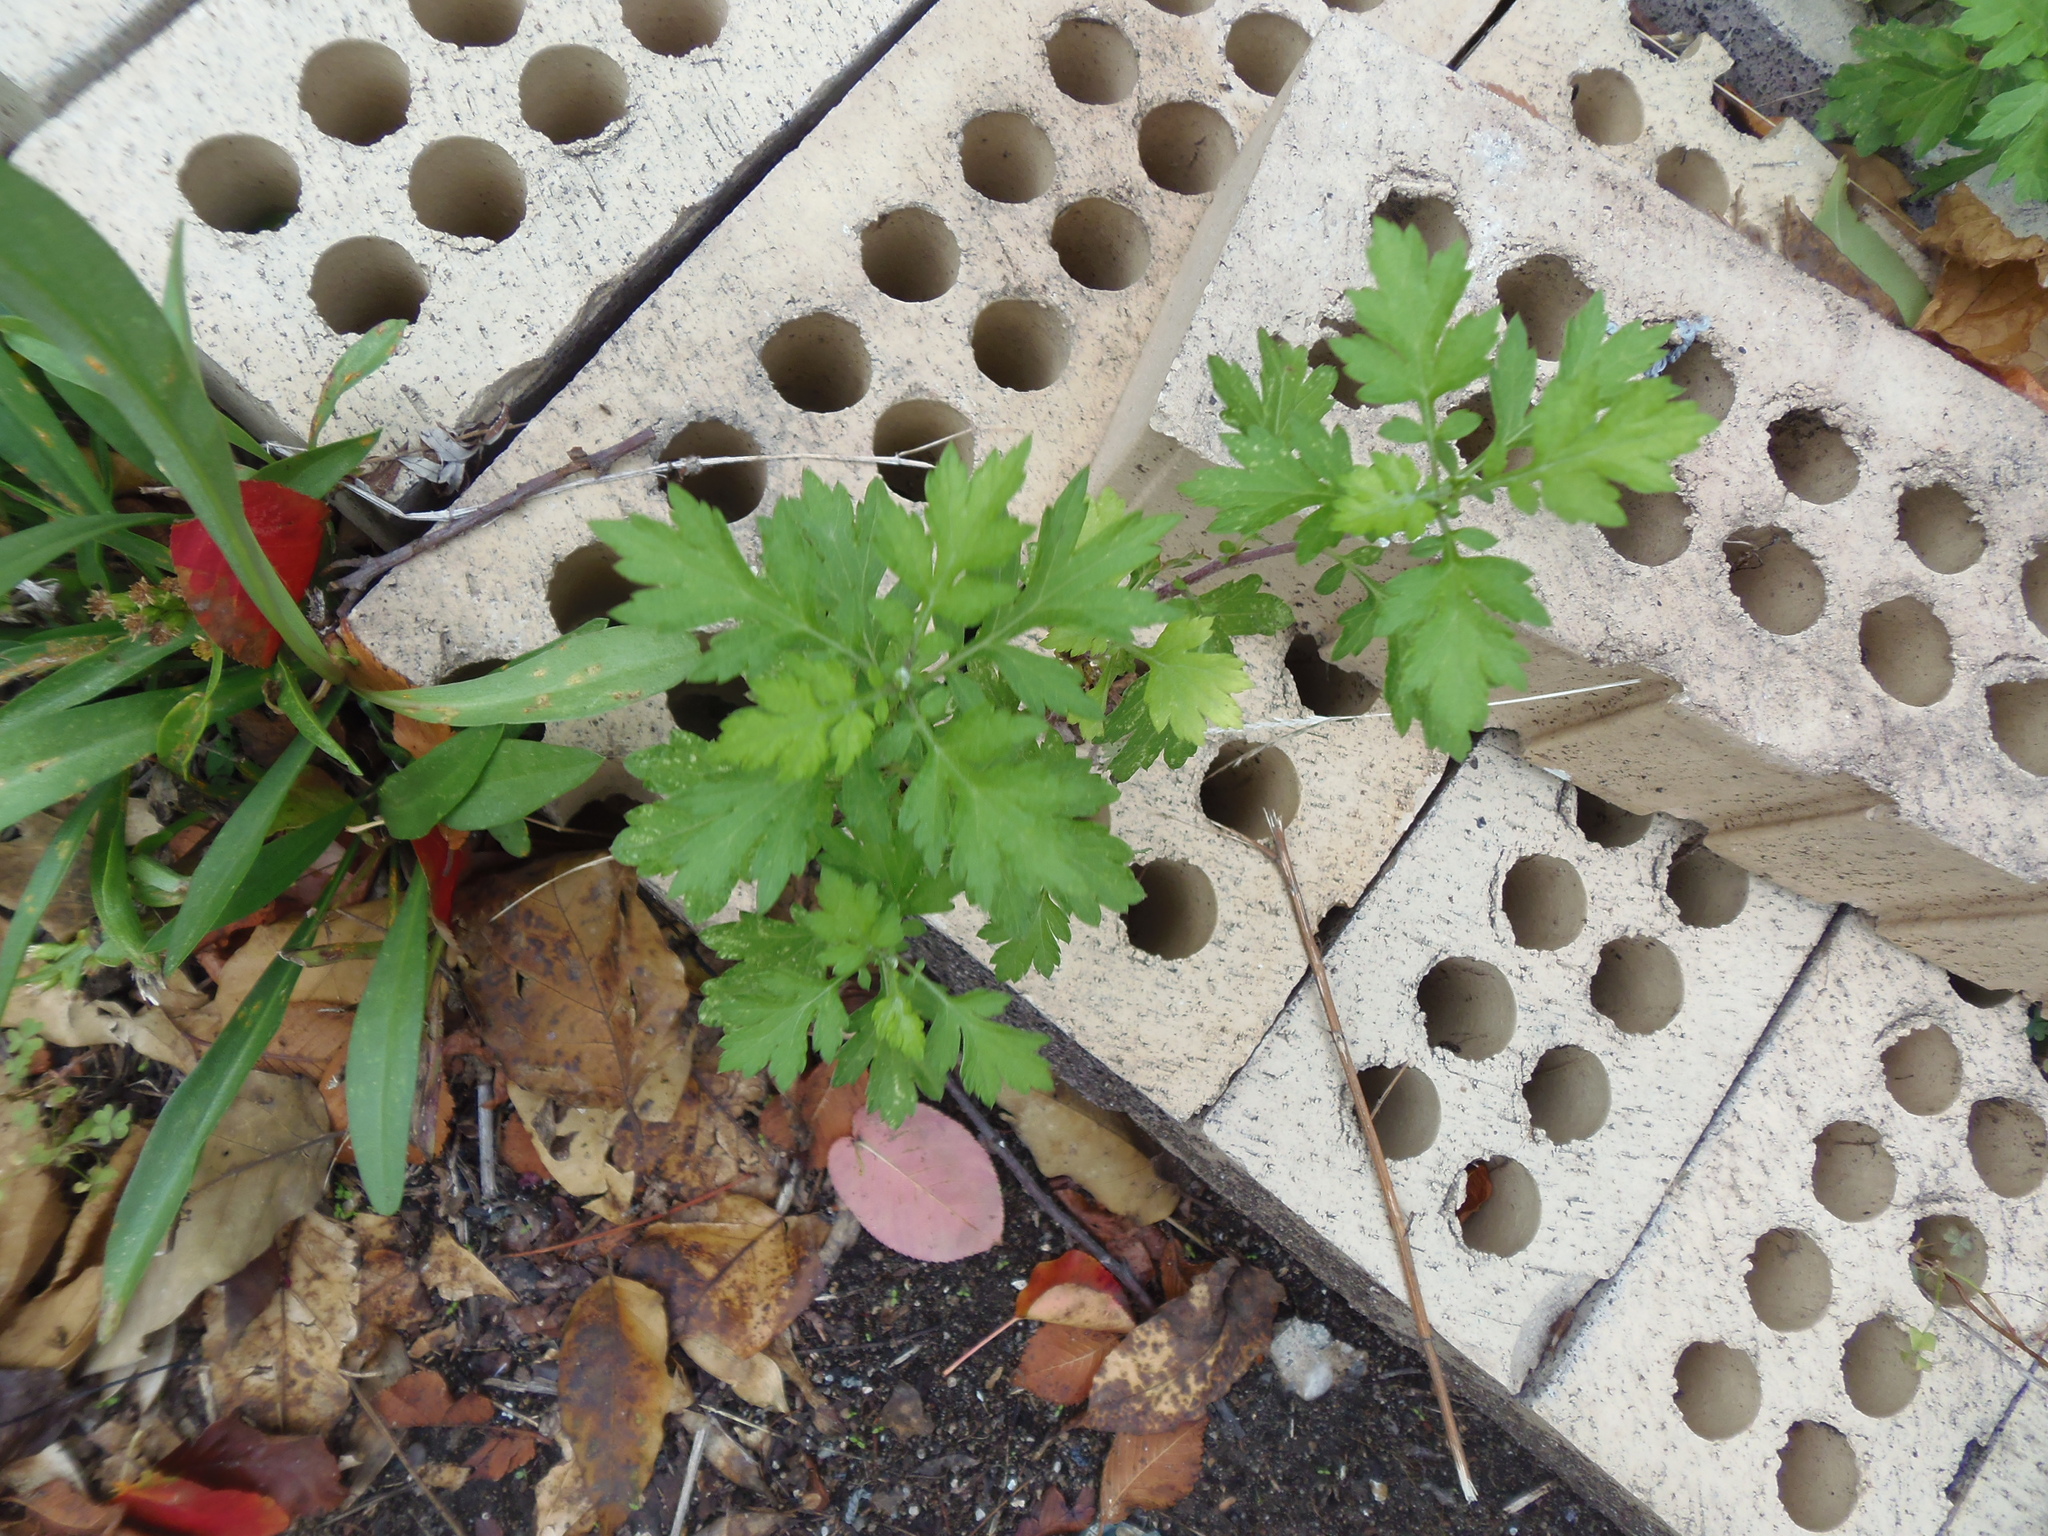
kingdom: Plantae
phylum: Tracheophyta
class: Magnoliopsida
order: Asterales
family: Asteraceae
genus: Artemisia
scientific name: Artemisia vulgaris
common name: Mugwort
